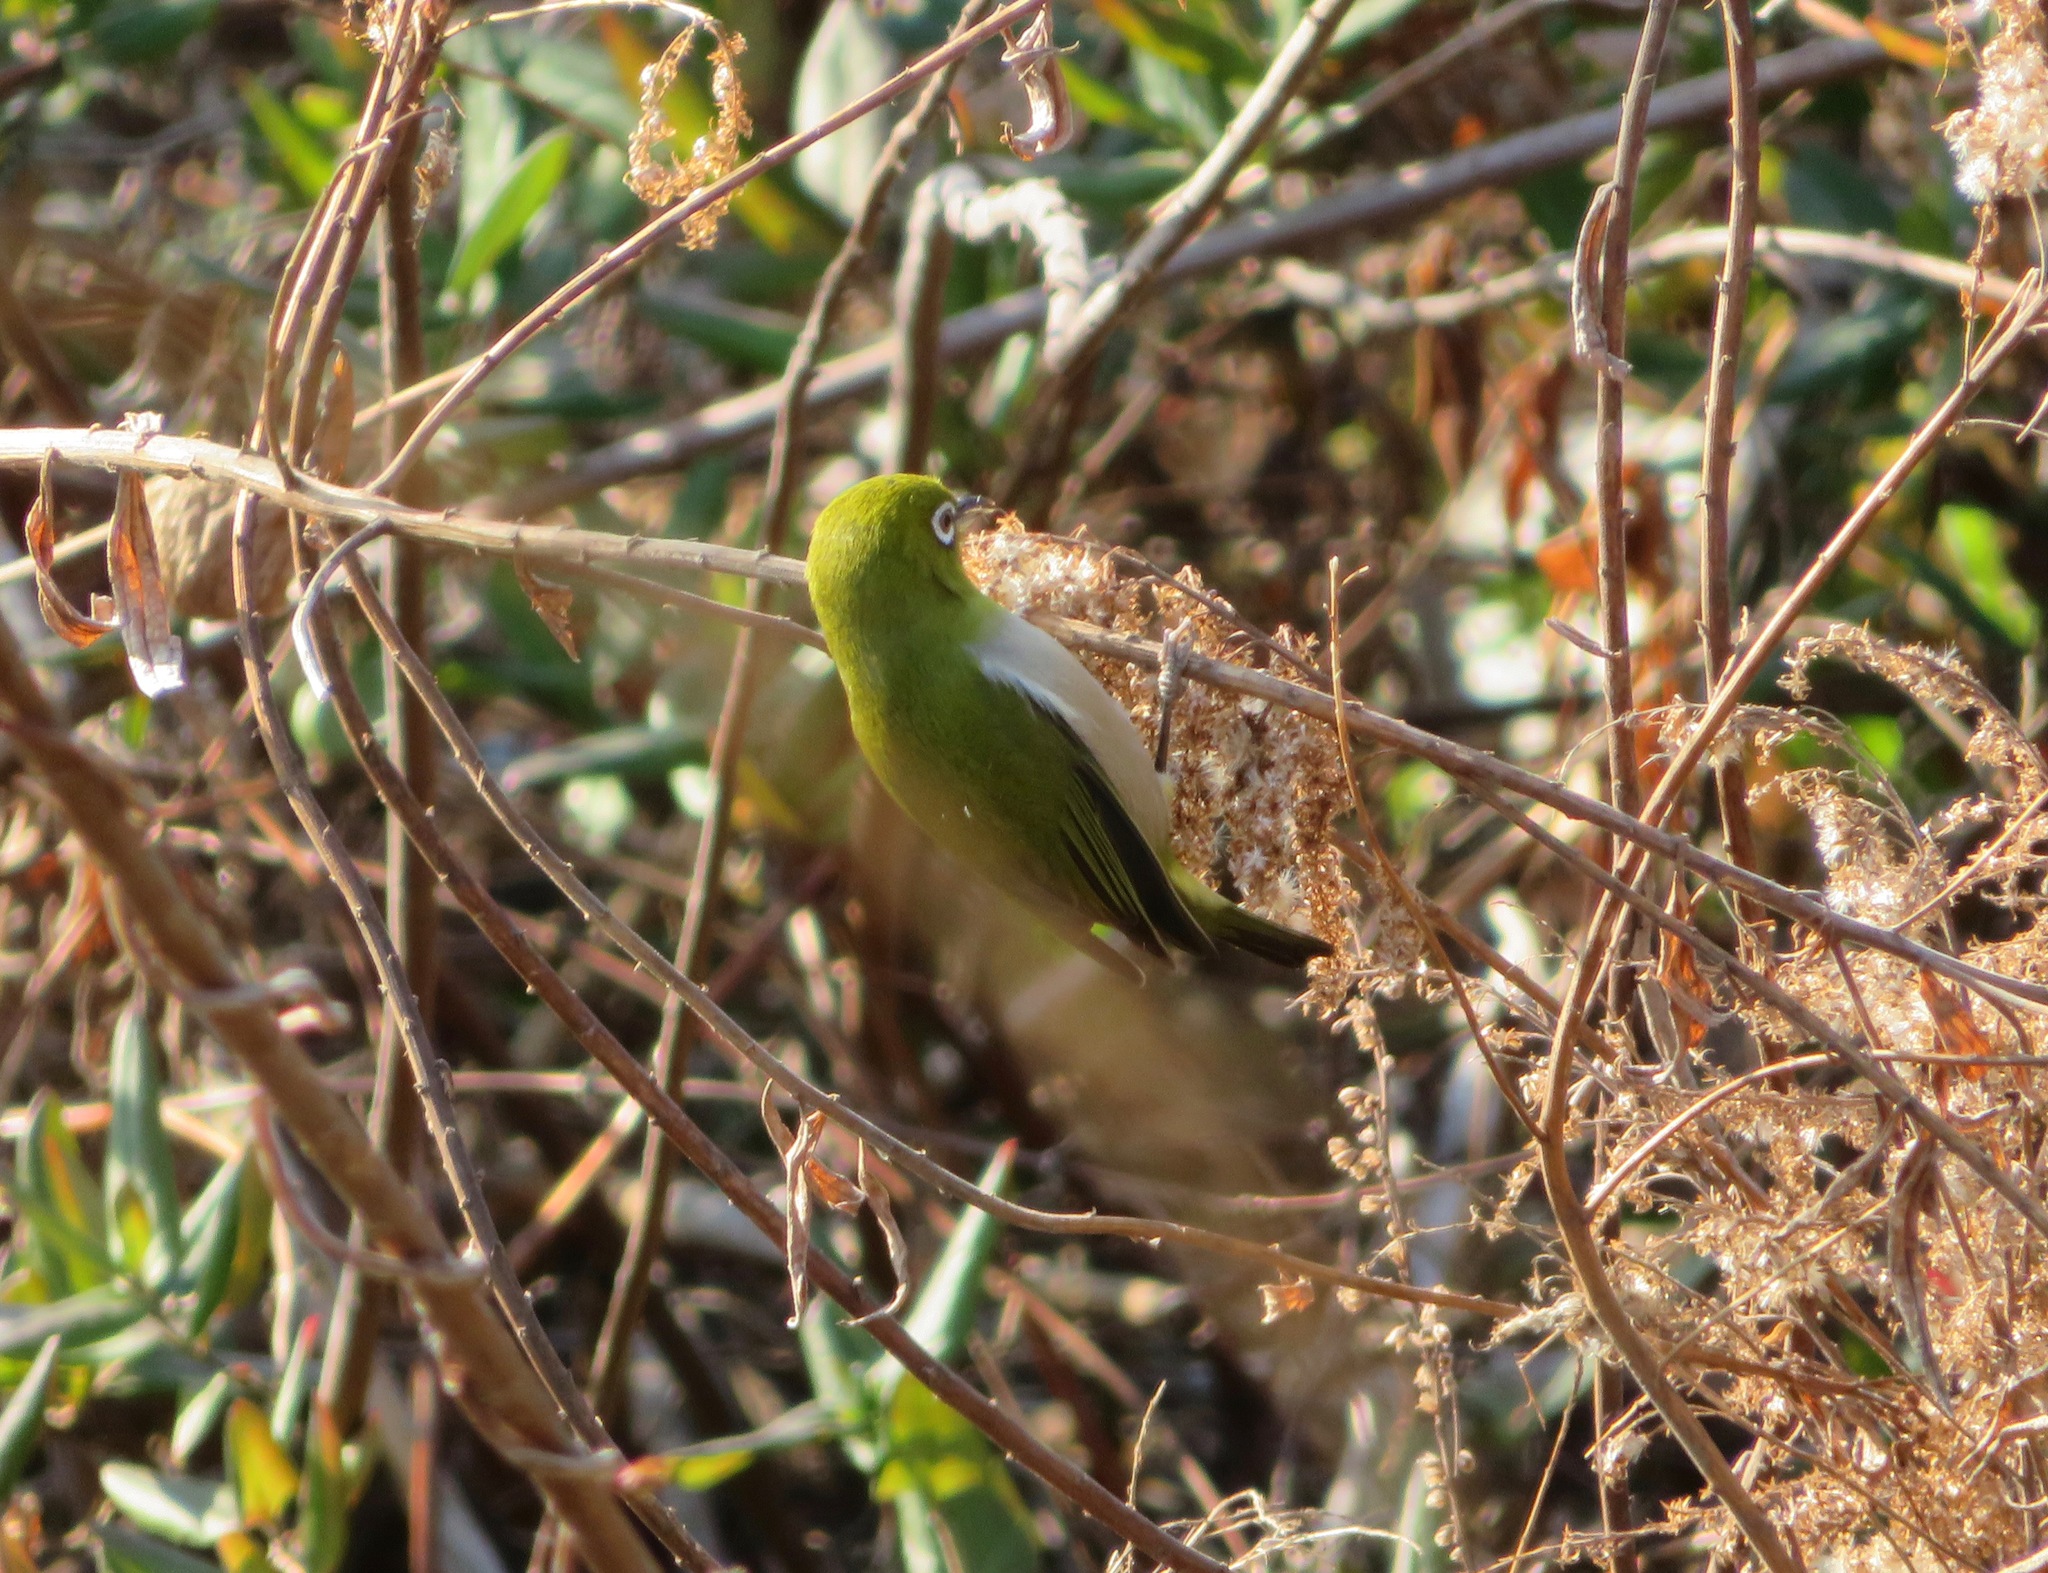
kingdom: Animalia
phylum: Chordata
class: Aves
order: Passeriformes
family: Zosteropidae
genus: Zosterops
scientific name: Zosterops japonicus
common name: Japanese white-eye
